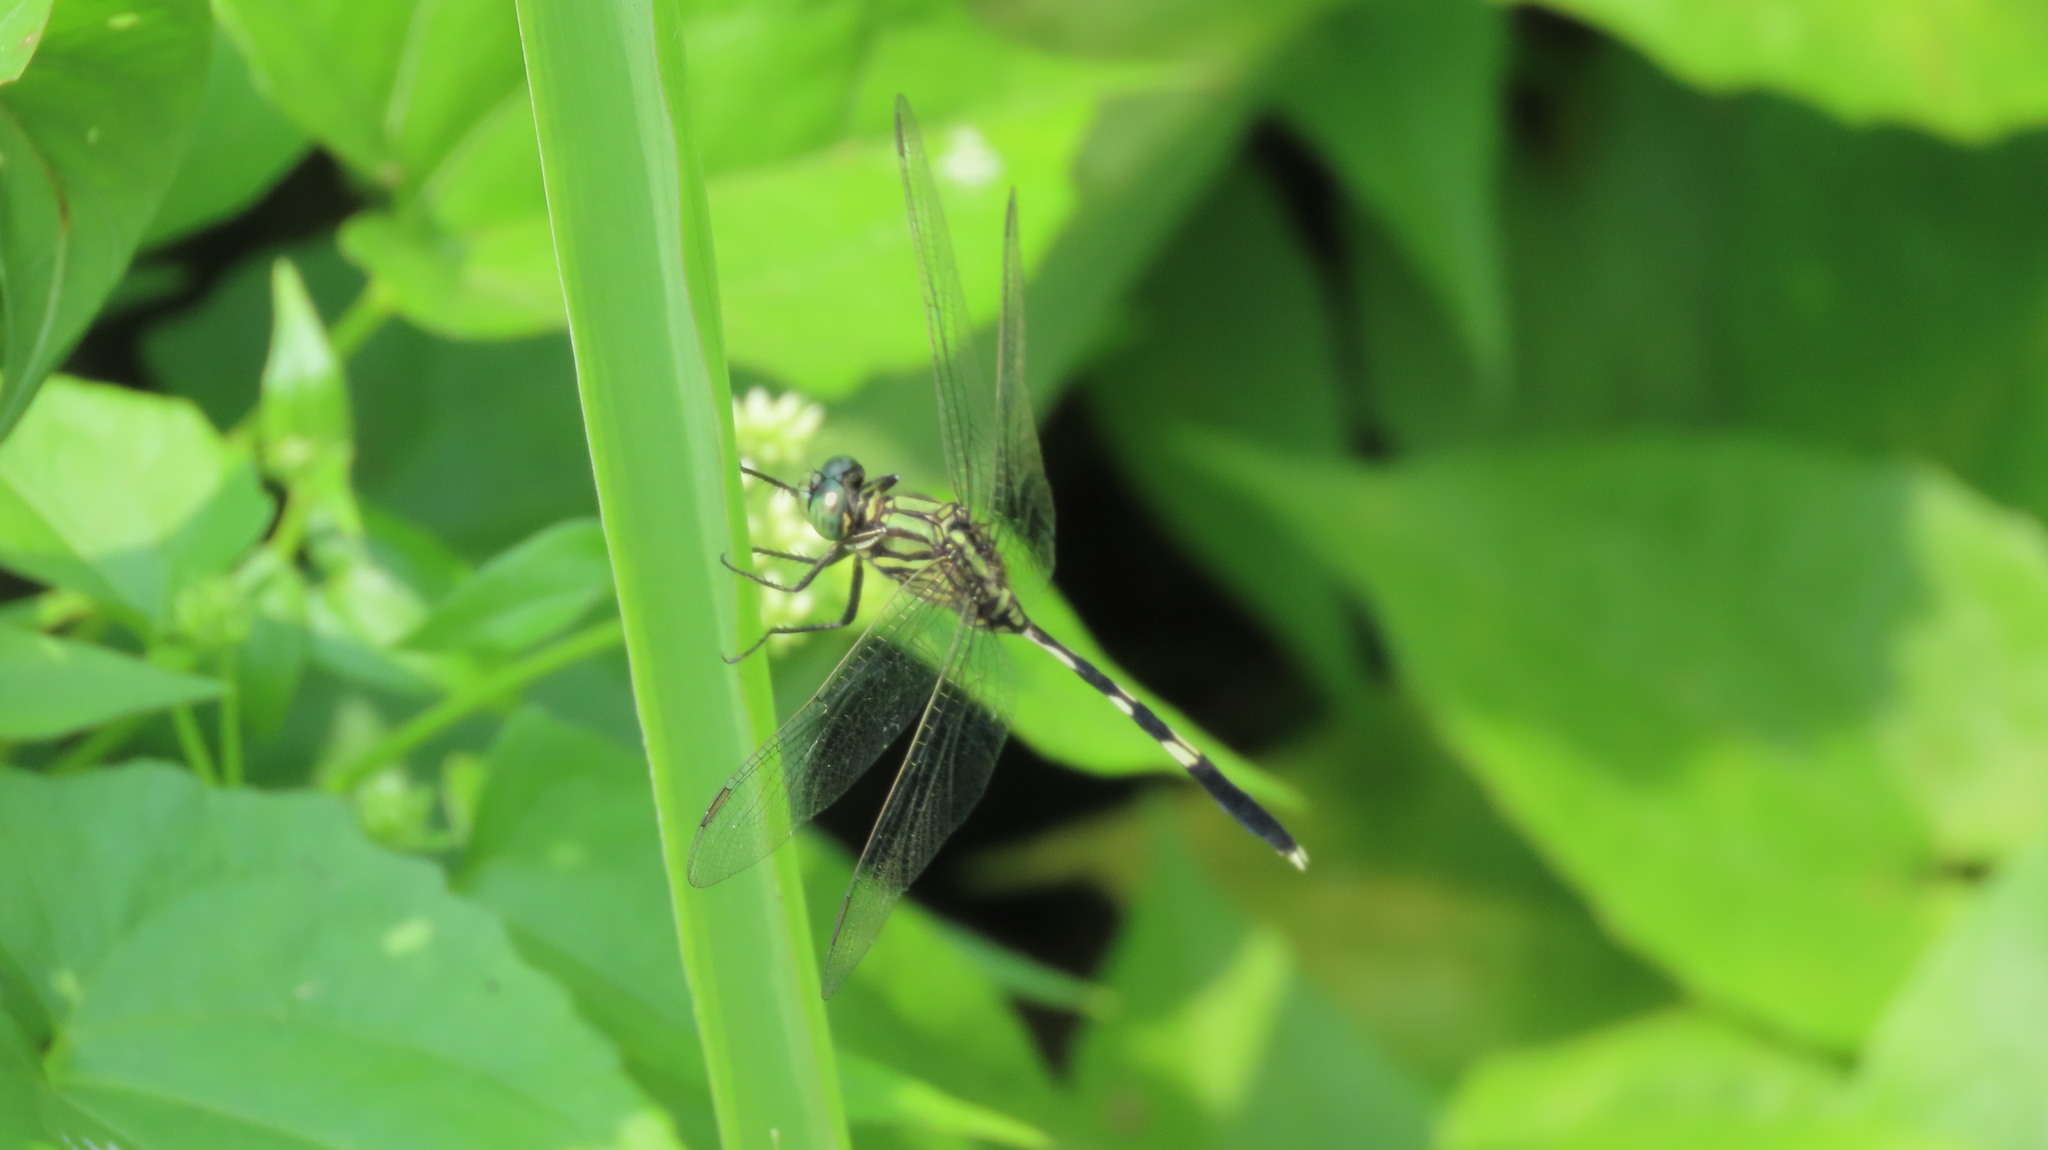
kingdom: Animalia
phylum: Arthropoda
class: Insecta
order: Odonata
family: Libellulidae
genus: Orthetrum
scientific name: Orthetrum sabina
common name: Slender skimmer
